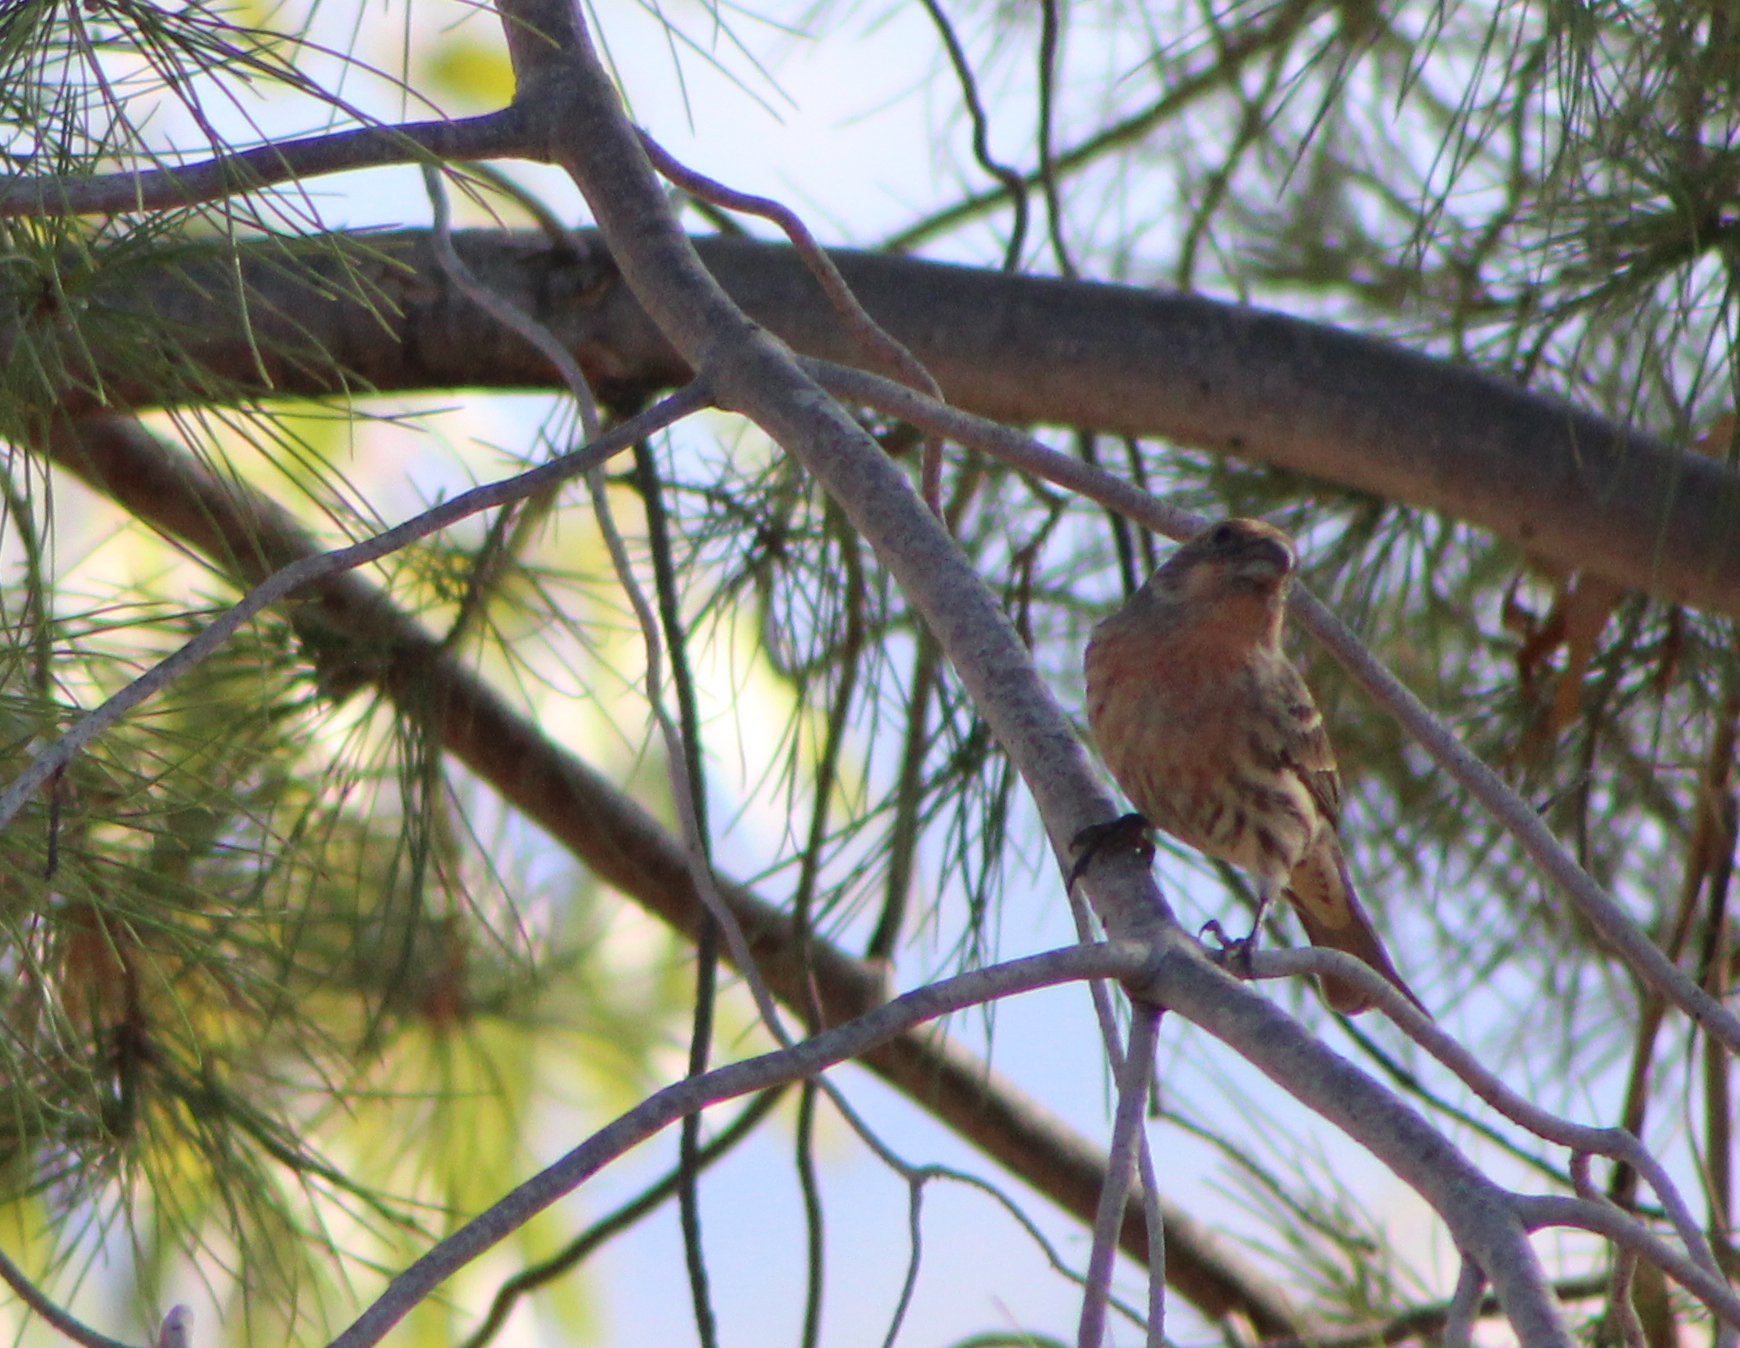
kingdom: Animalia
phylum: Chordata
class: Aves
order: Passeriformes
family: Fringillidae
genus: Haemorhous
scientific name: Haemorhous mexicanus
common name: House finch
